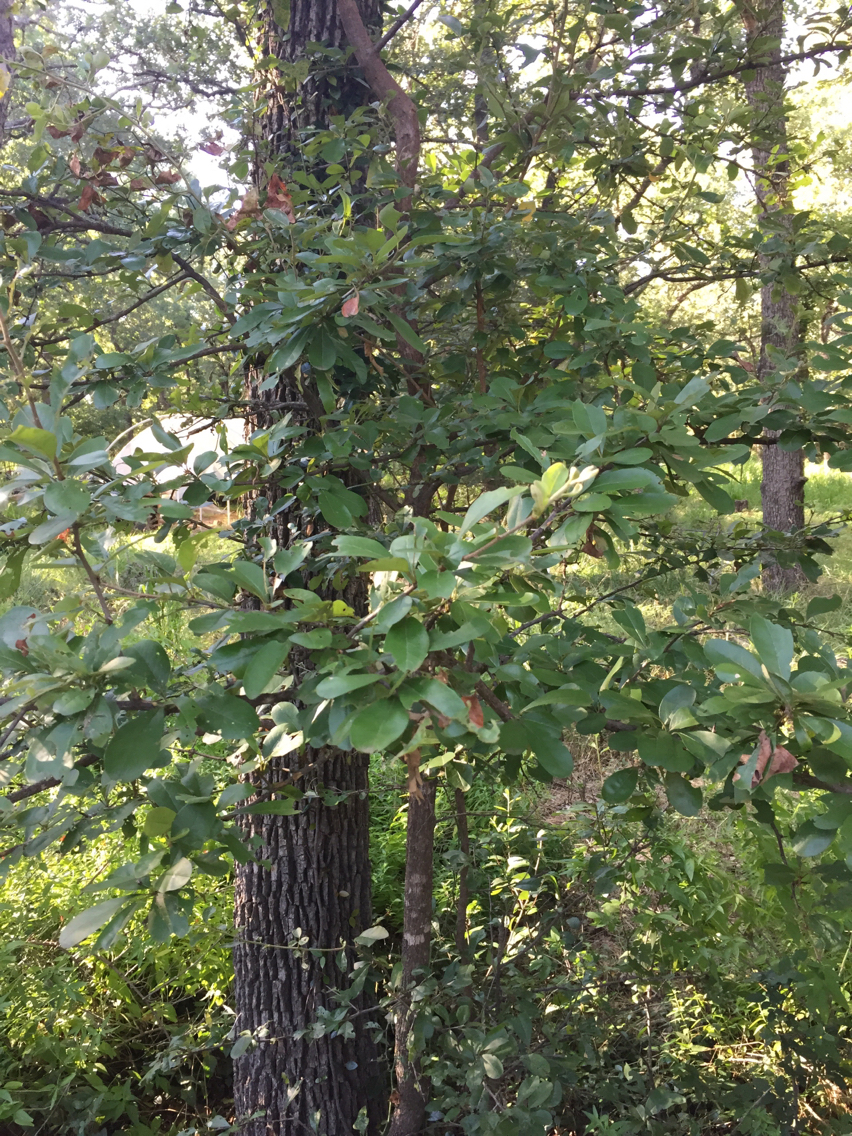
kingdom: Plantae
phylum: Tracheophyta
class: Magnoliopsida
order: Ericales
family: Sapotaceae
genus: Sideroxylon
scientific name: Sideroxylon lanuginosum
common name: Chittamwood
